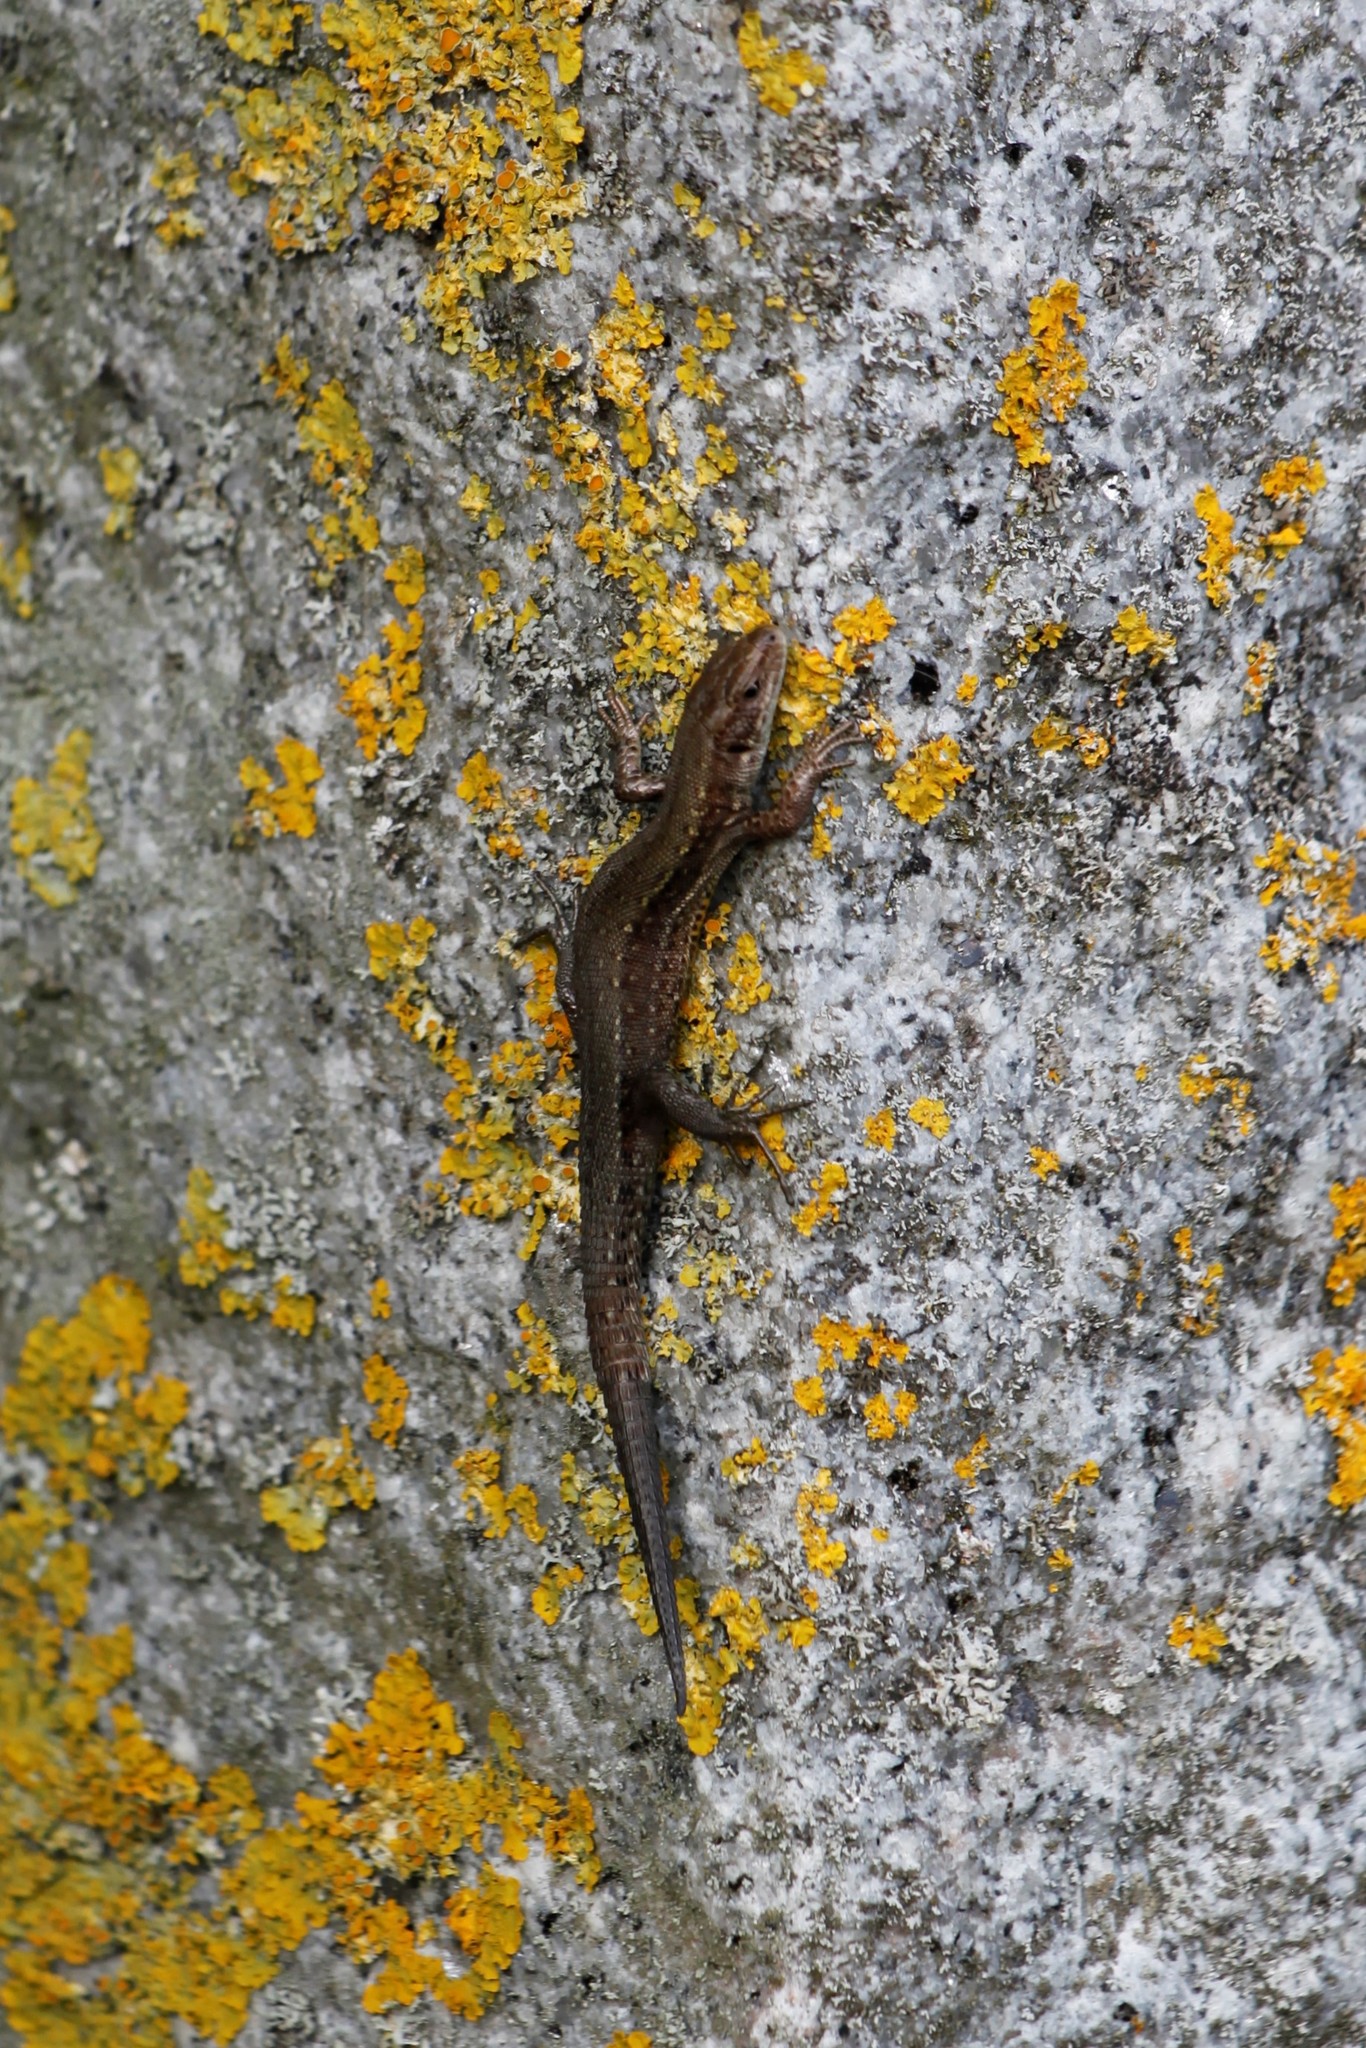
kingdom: Animalia
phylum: Chordata
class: Squamata
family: Lacertidae
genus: Zootoca
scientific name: Zootoca vivipara
